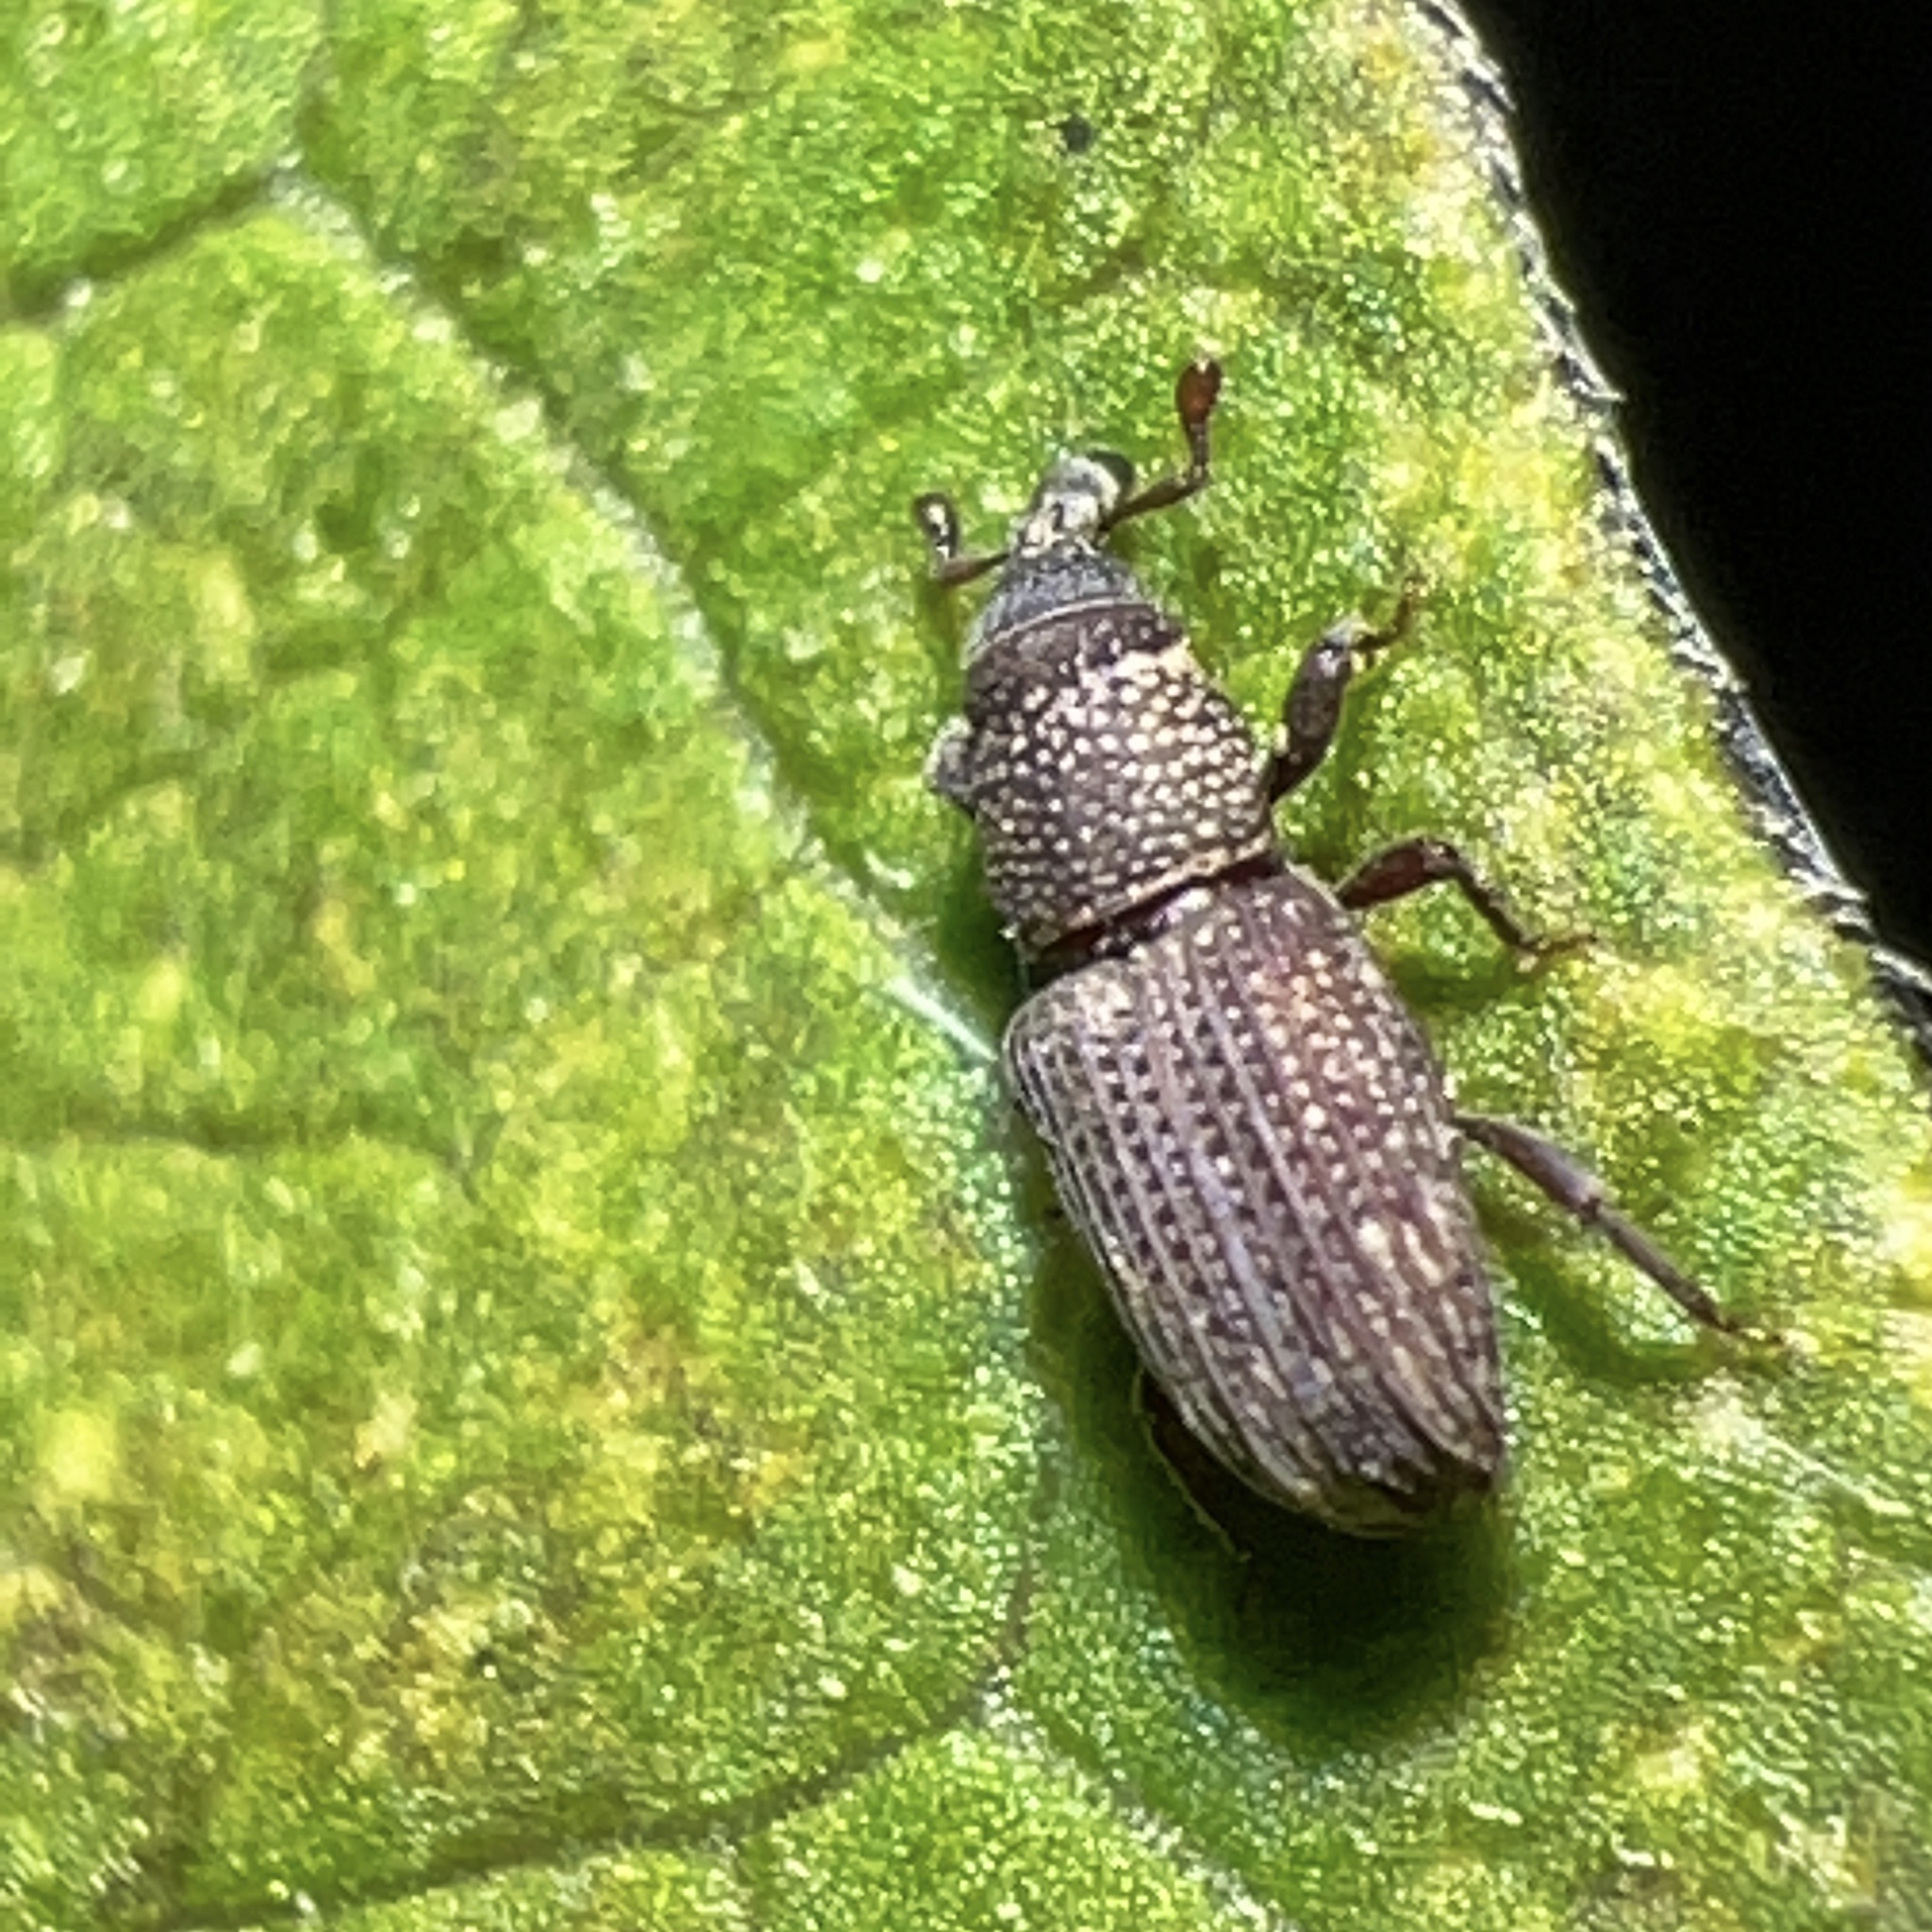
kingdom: Animalia
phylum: Arthropoda
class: Insecta
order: Coleoptera
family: Dryophthoridae
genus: Dryophthorus
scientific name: Dryophthorus americanus
